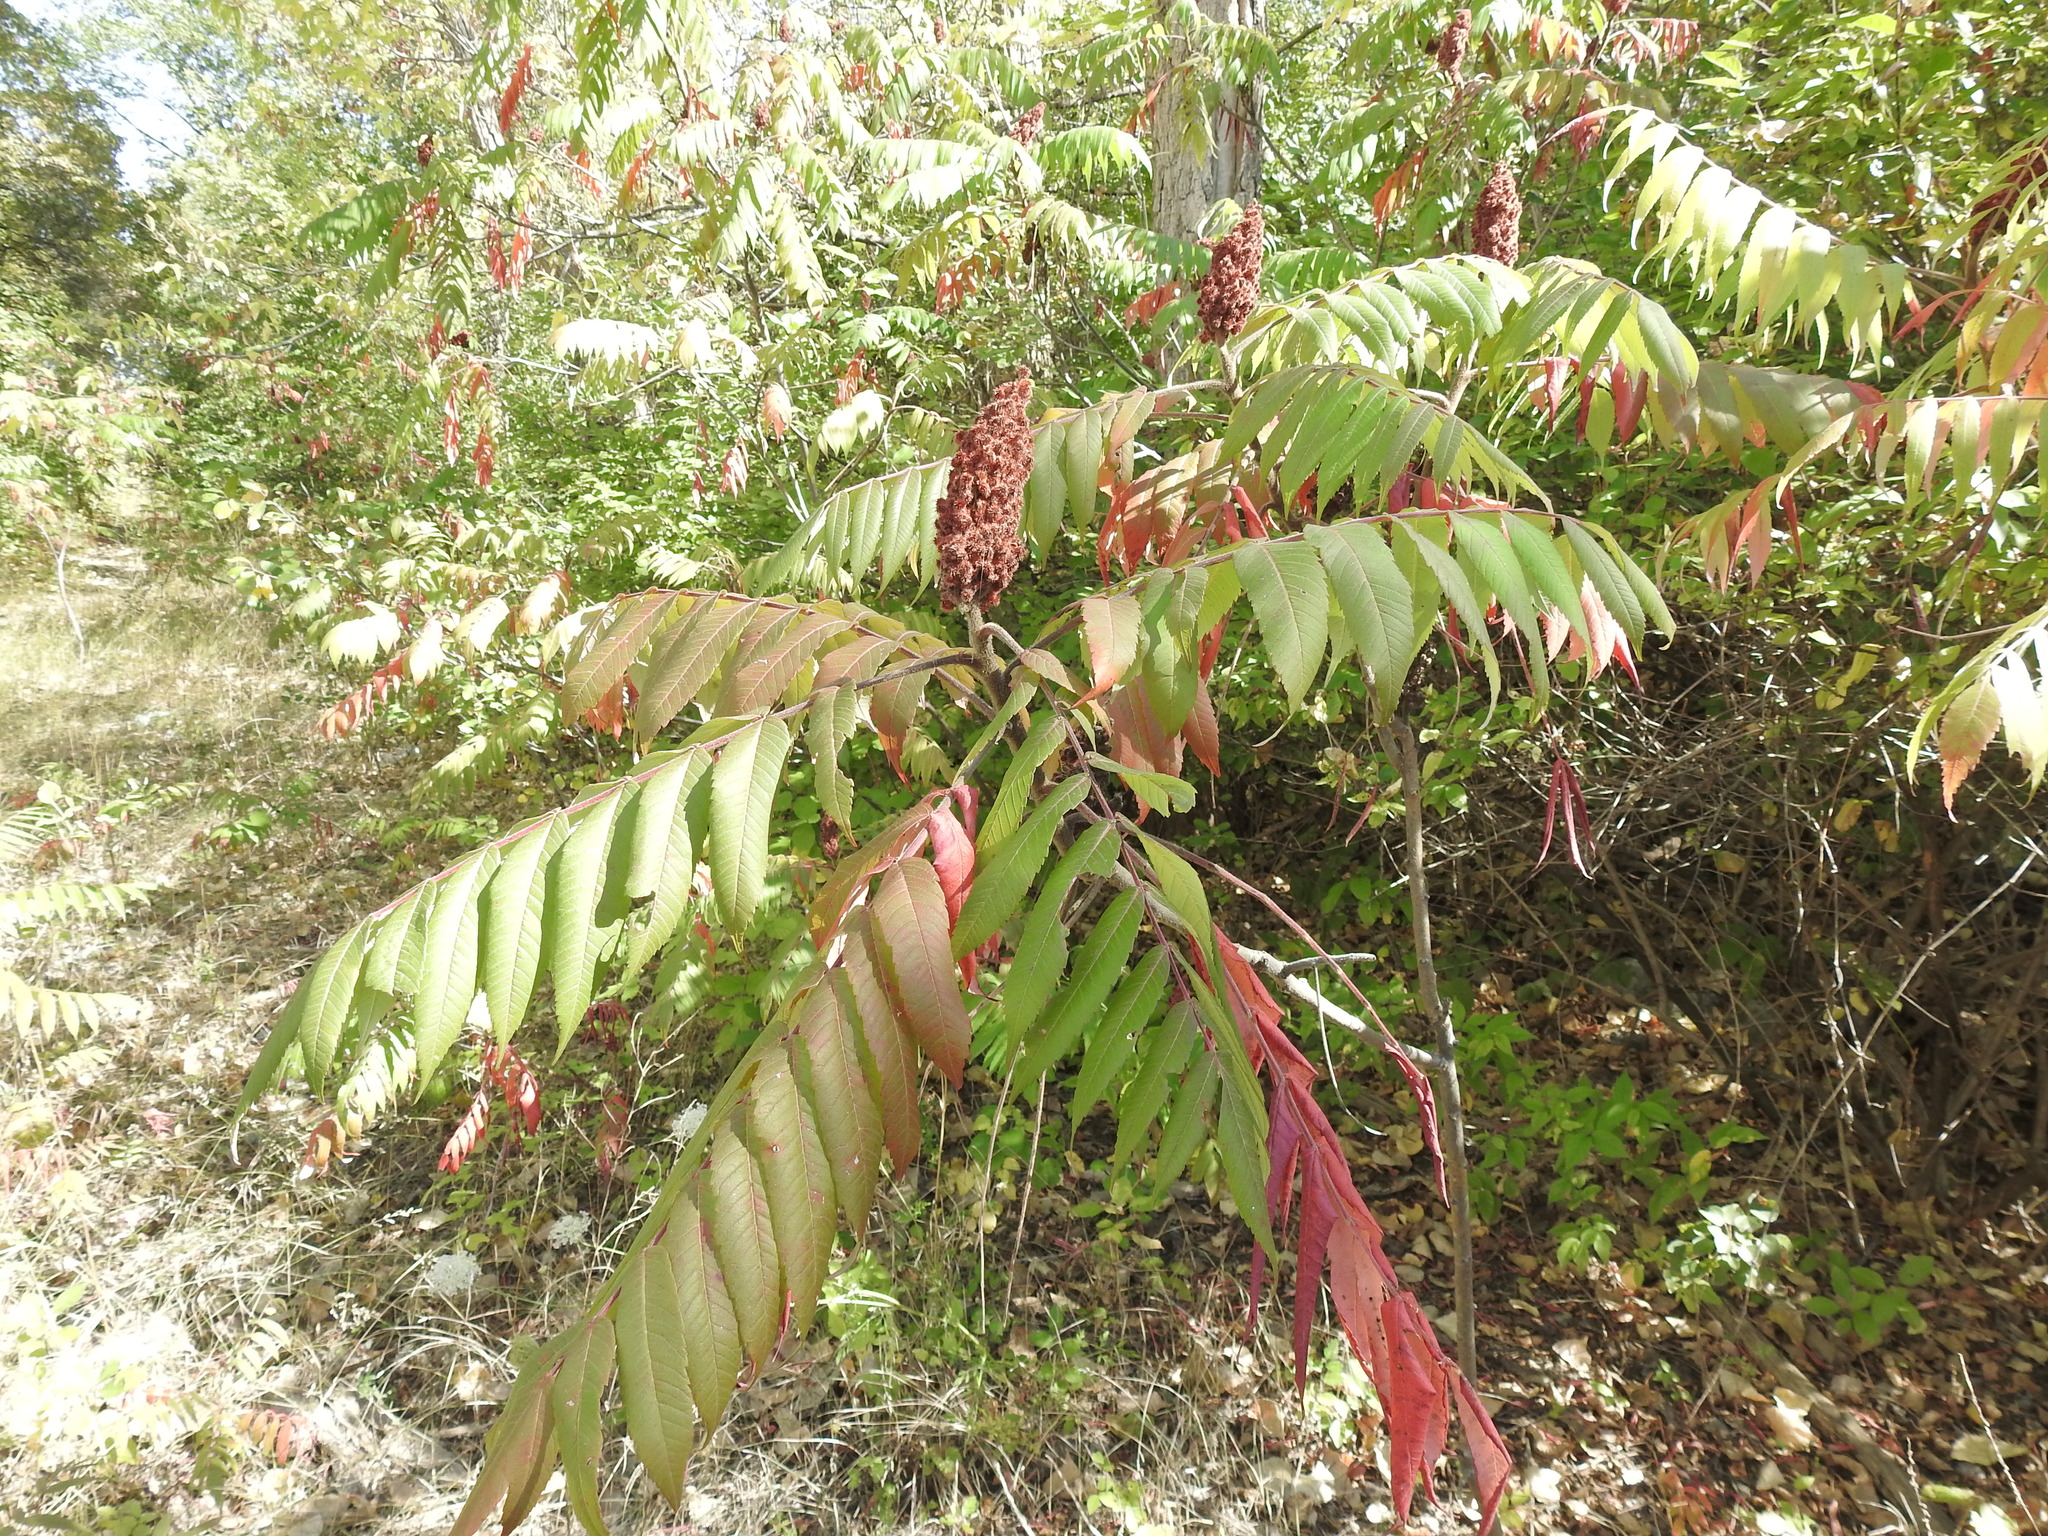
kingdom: Plantae
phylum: Tracheophyta
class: Magnoliopsida
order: Sapindales
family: Anacardiaceae
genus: Rhus
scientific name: Rhus typhina
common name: Staghorn sumac
